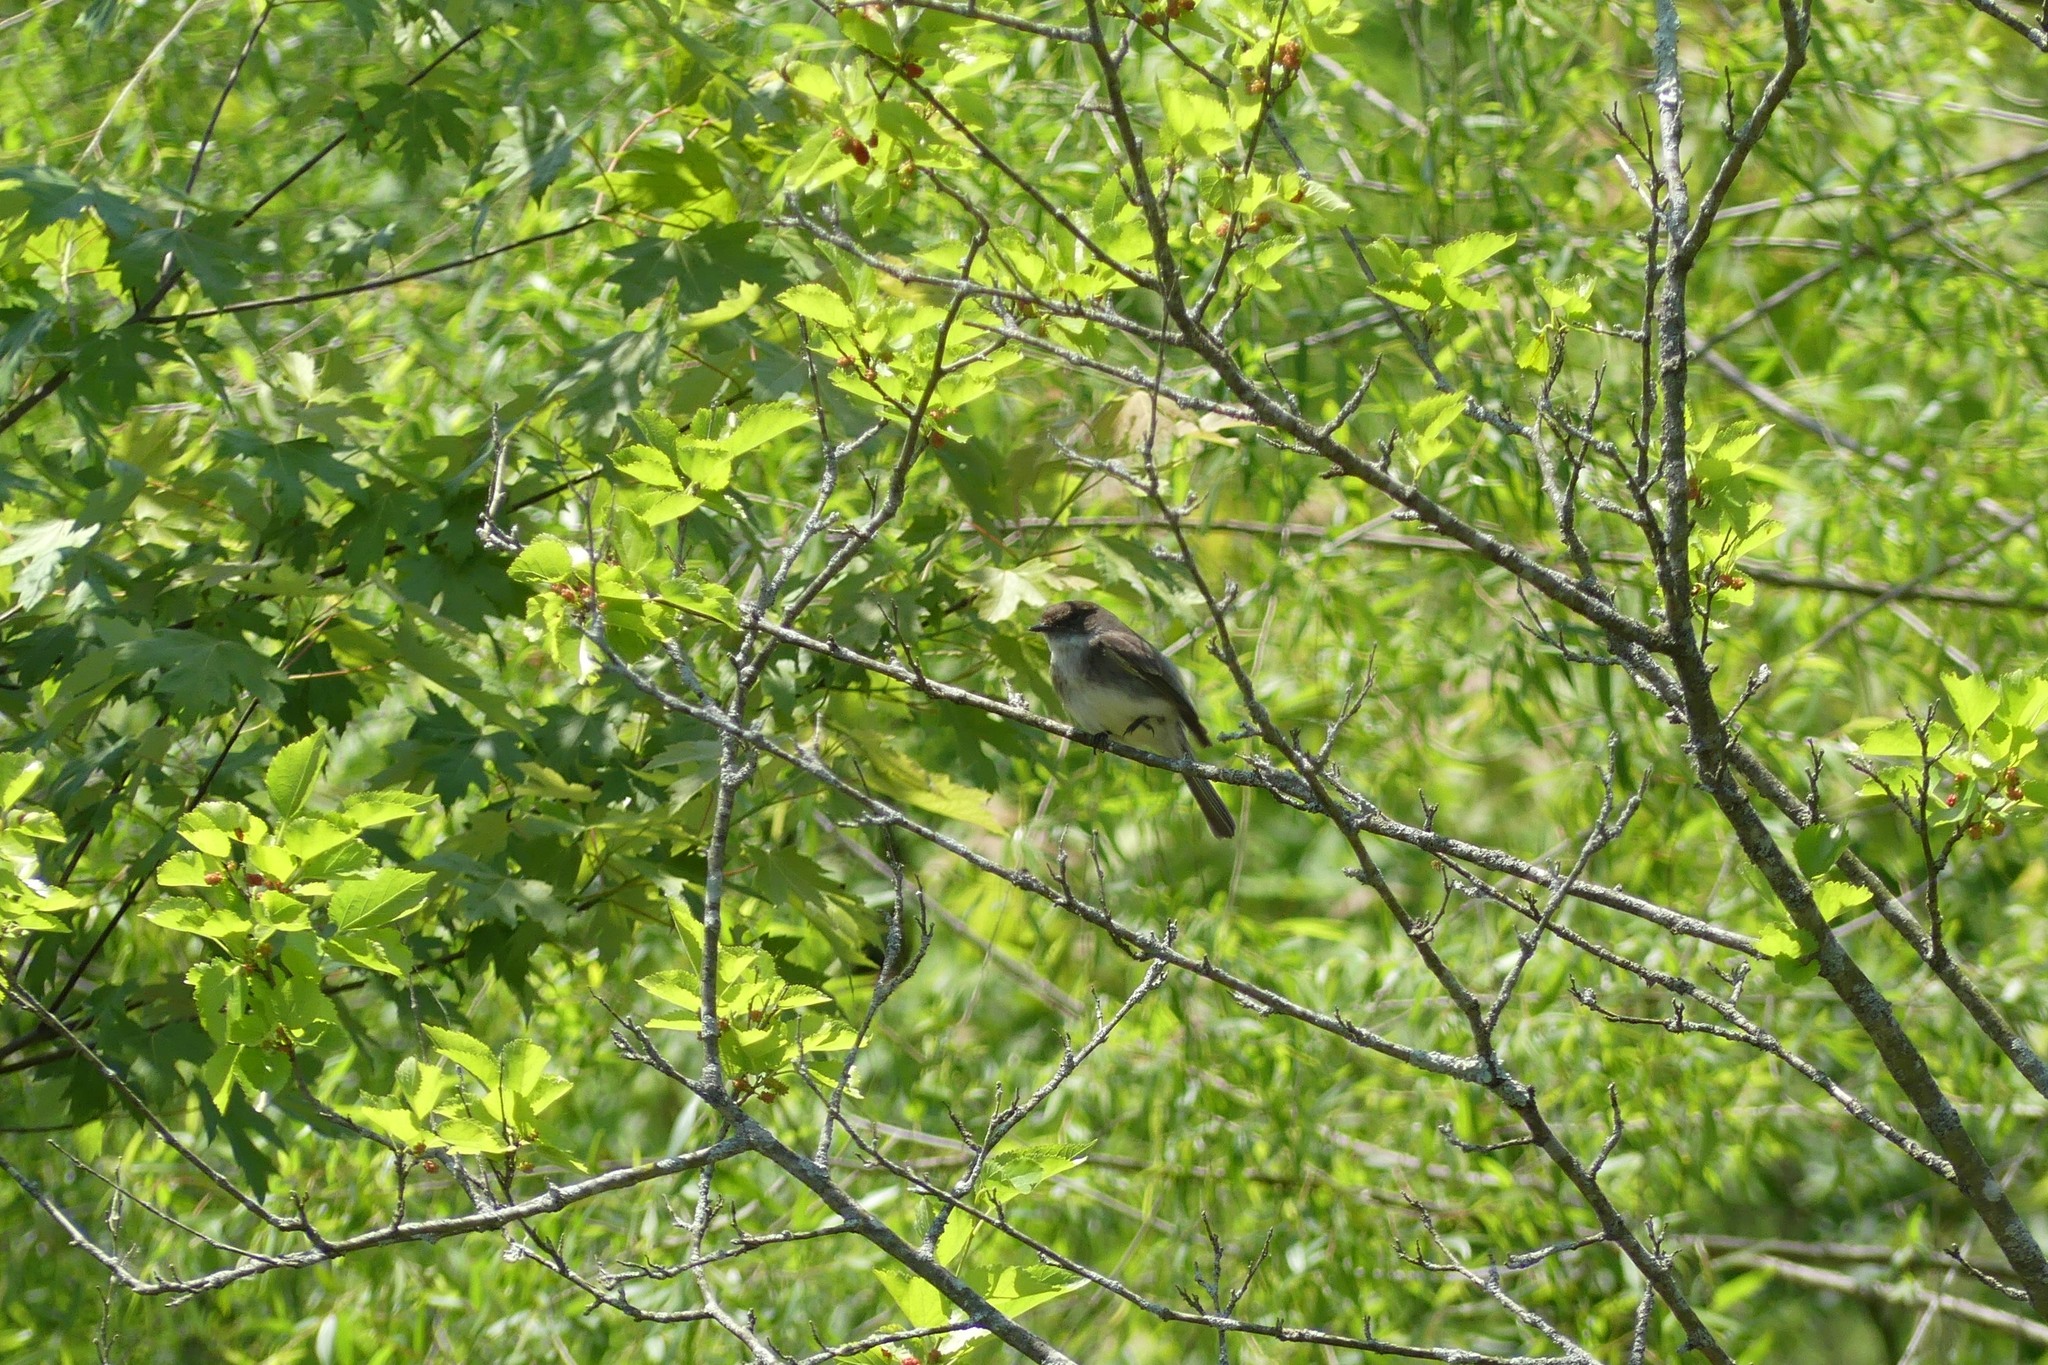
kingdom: Animalia
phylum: Chordata
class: Aves
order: Passeriformes
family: Tyrannidae
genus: Sayornis
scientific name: Sayornis phoebe
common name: Eastern phoebe
